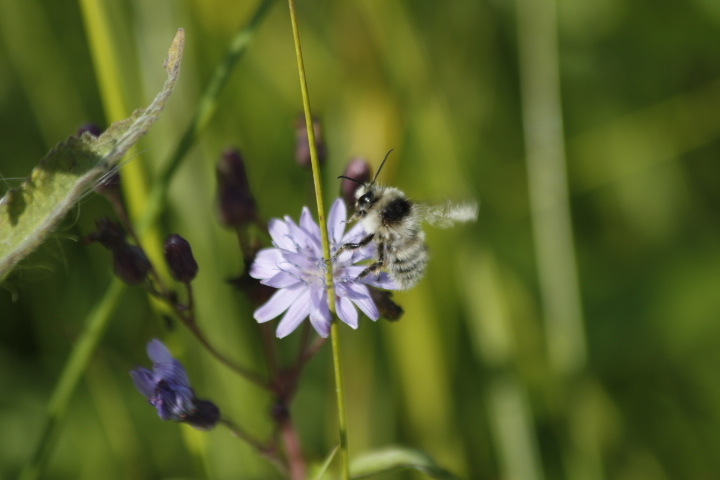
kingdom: Animalia
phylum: Arthropoda
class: Insecta
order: Hymenoptera
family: Apidae
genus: Bombus
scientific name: Bombus veteranus
